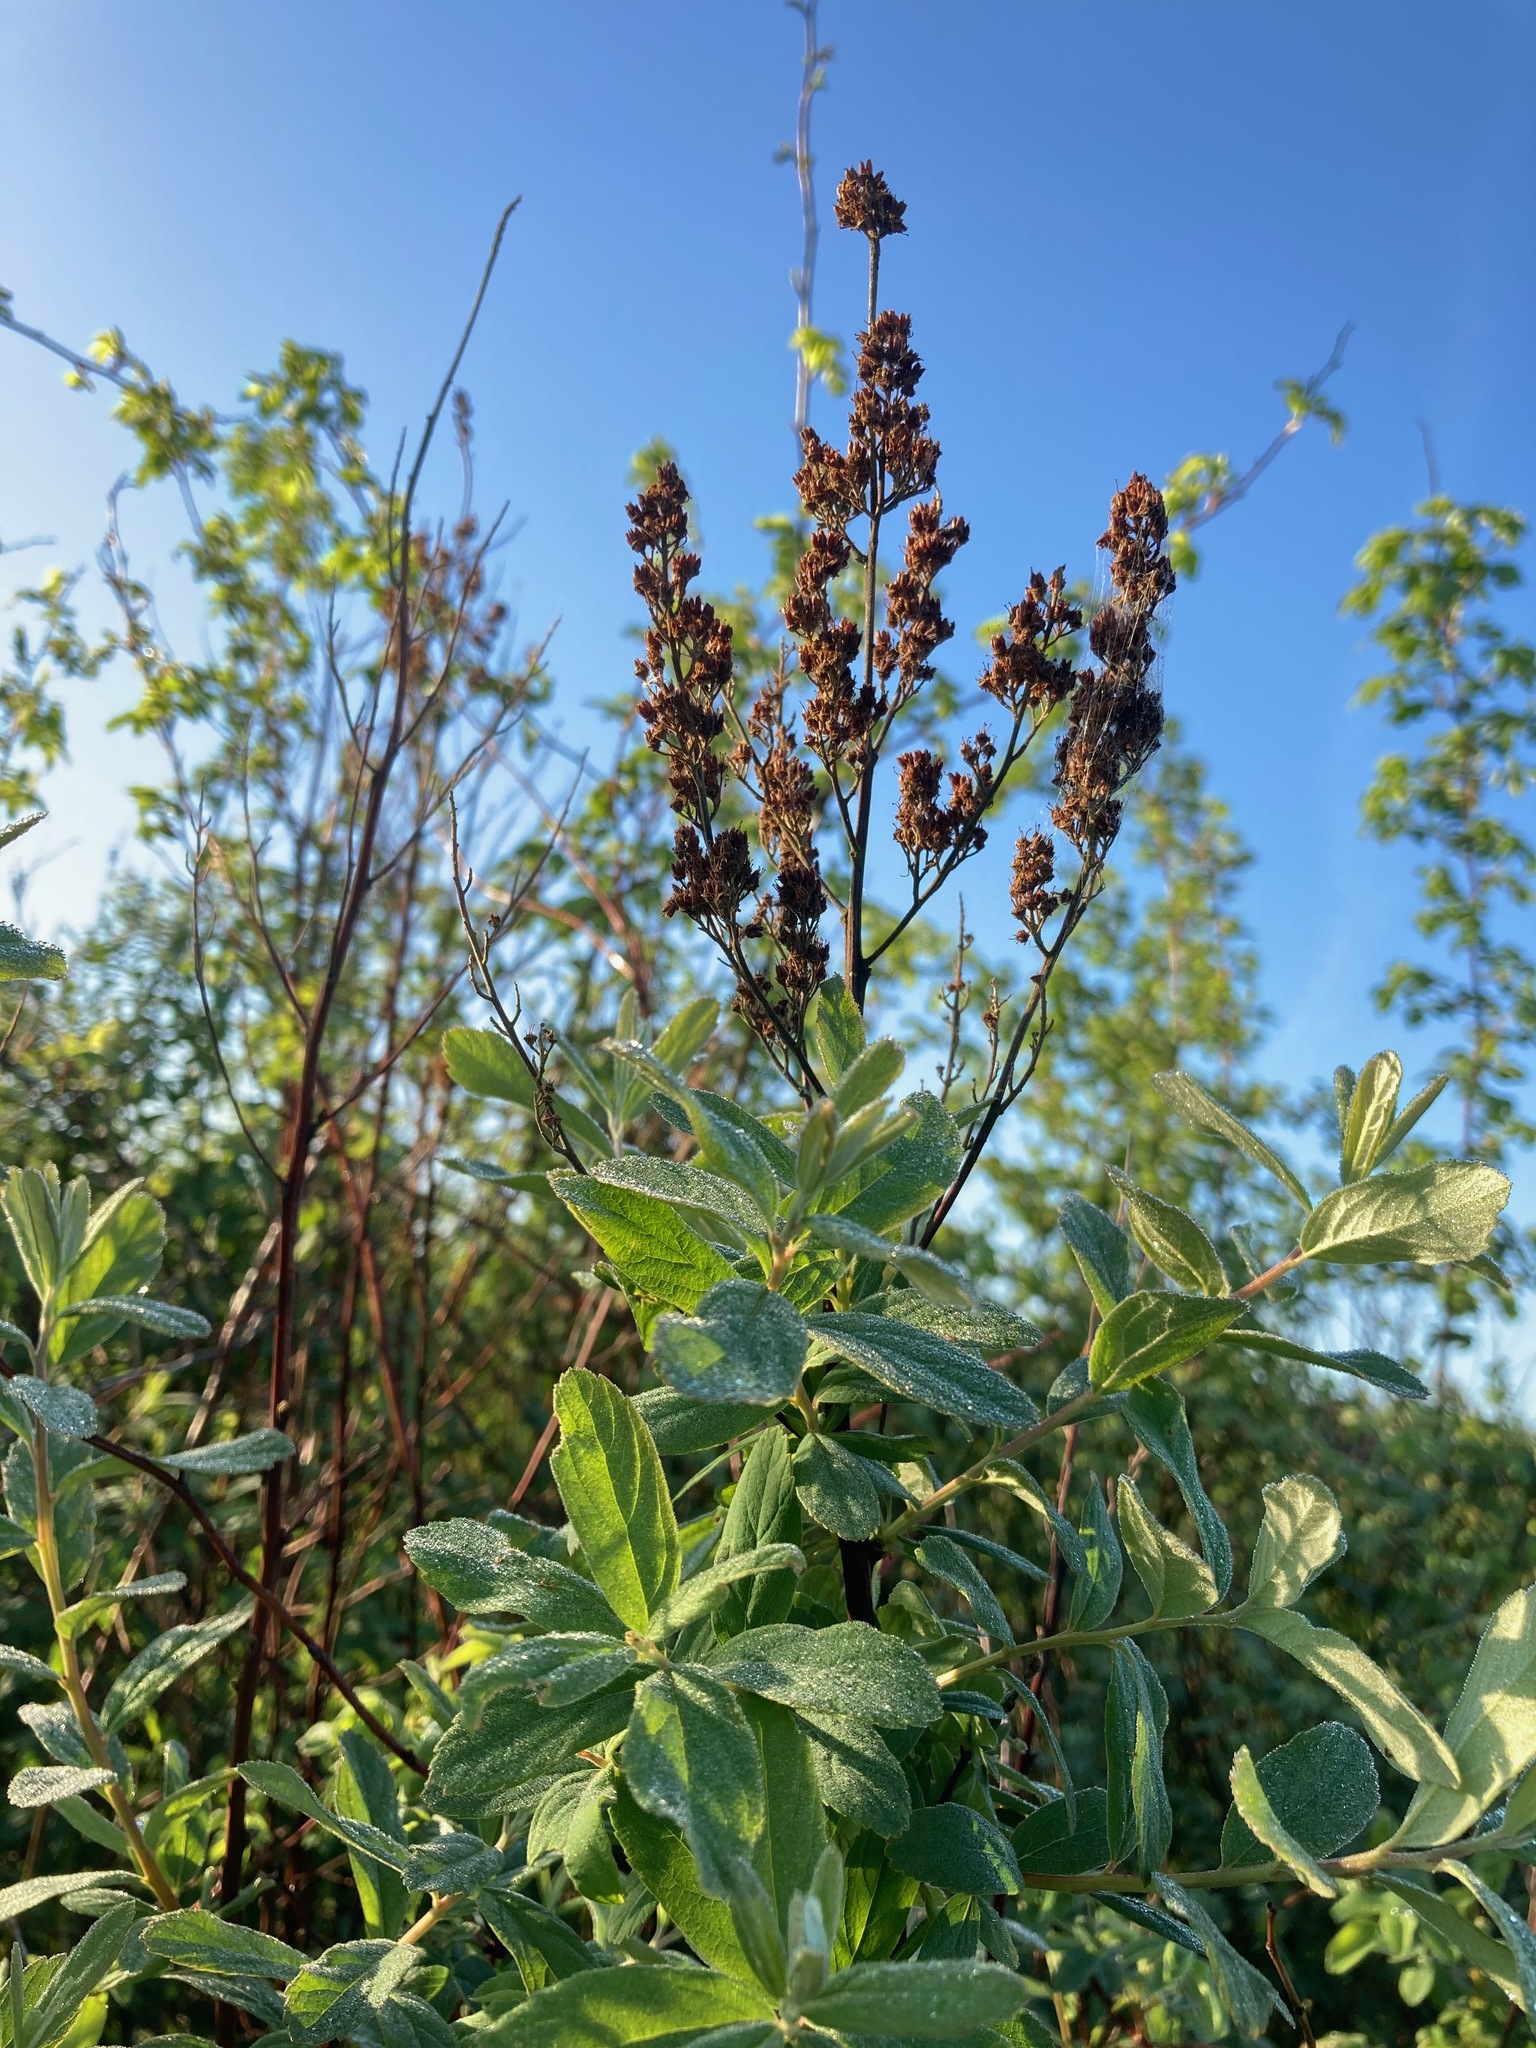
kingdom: Plantae
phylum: Tracheophyta
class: Magnoliopsida
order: Rosales
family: Rosaceae
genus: Spiraea
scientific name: Spiraea douglasii
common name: Steeplebush
